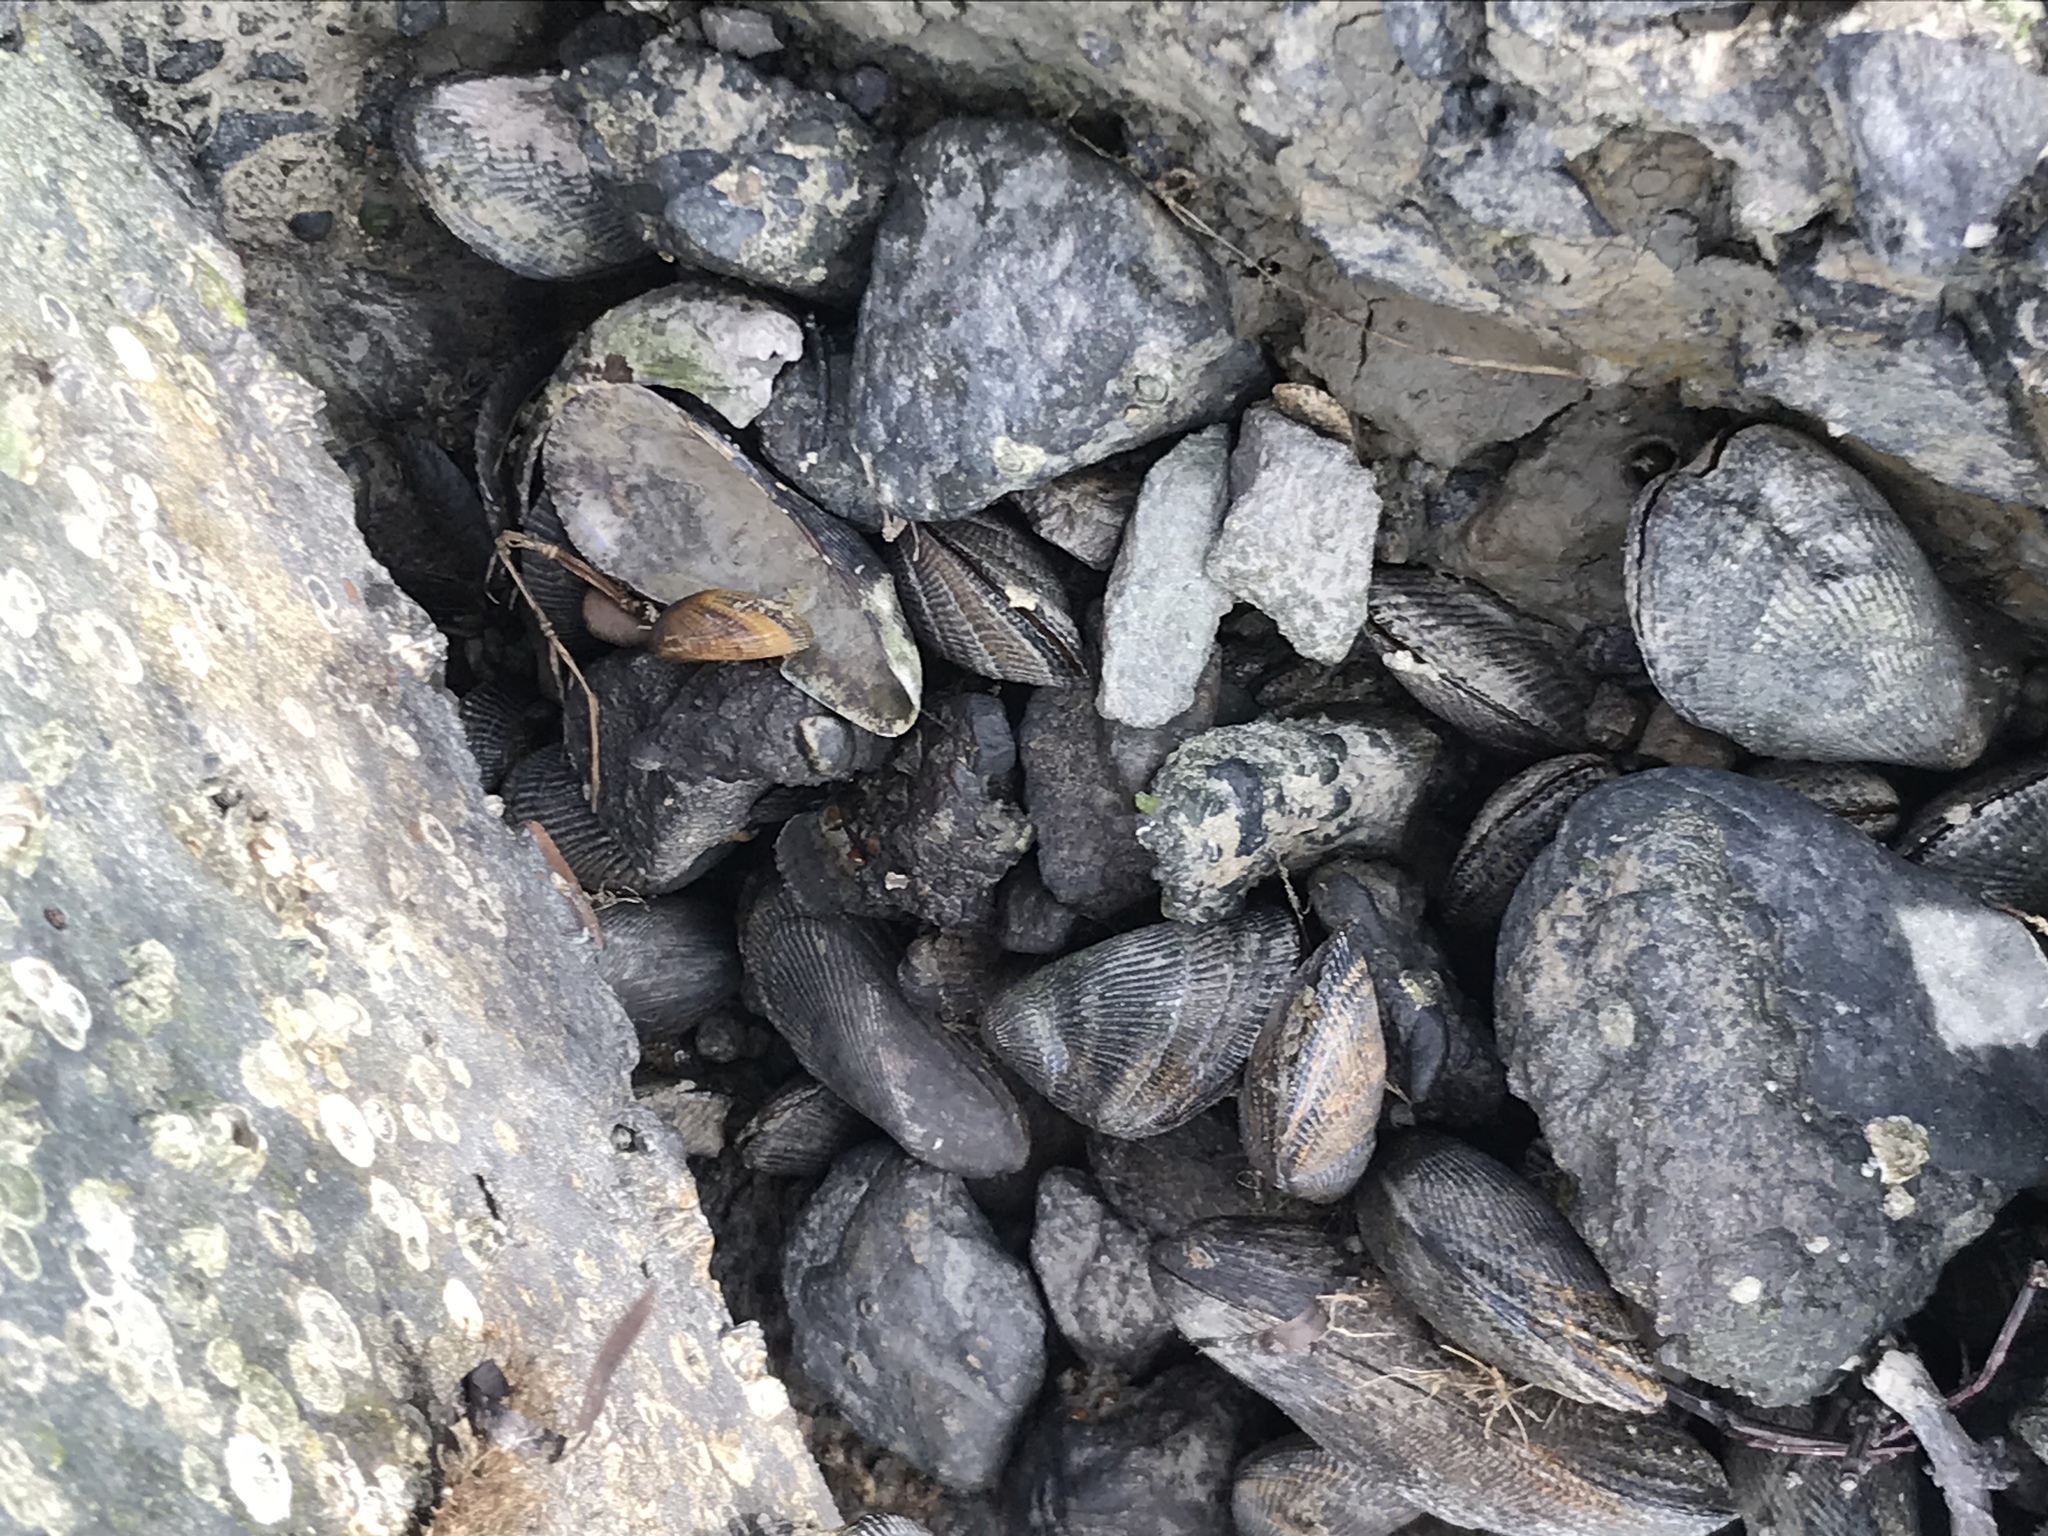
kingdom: Animalia
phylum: Mollusca
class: Bivalvia
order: Mytilida
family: Mytilidae
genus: Geukensia
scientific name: Geukensia demissa
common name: Ribbed mussel
